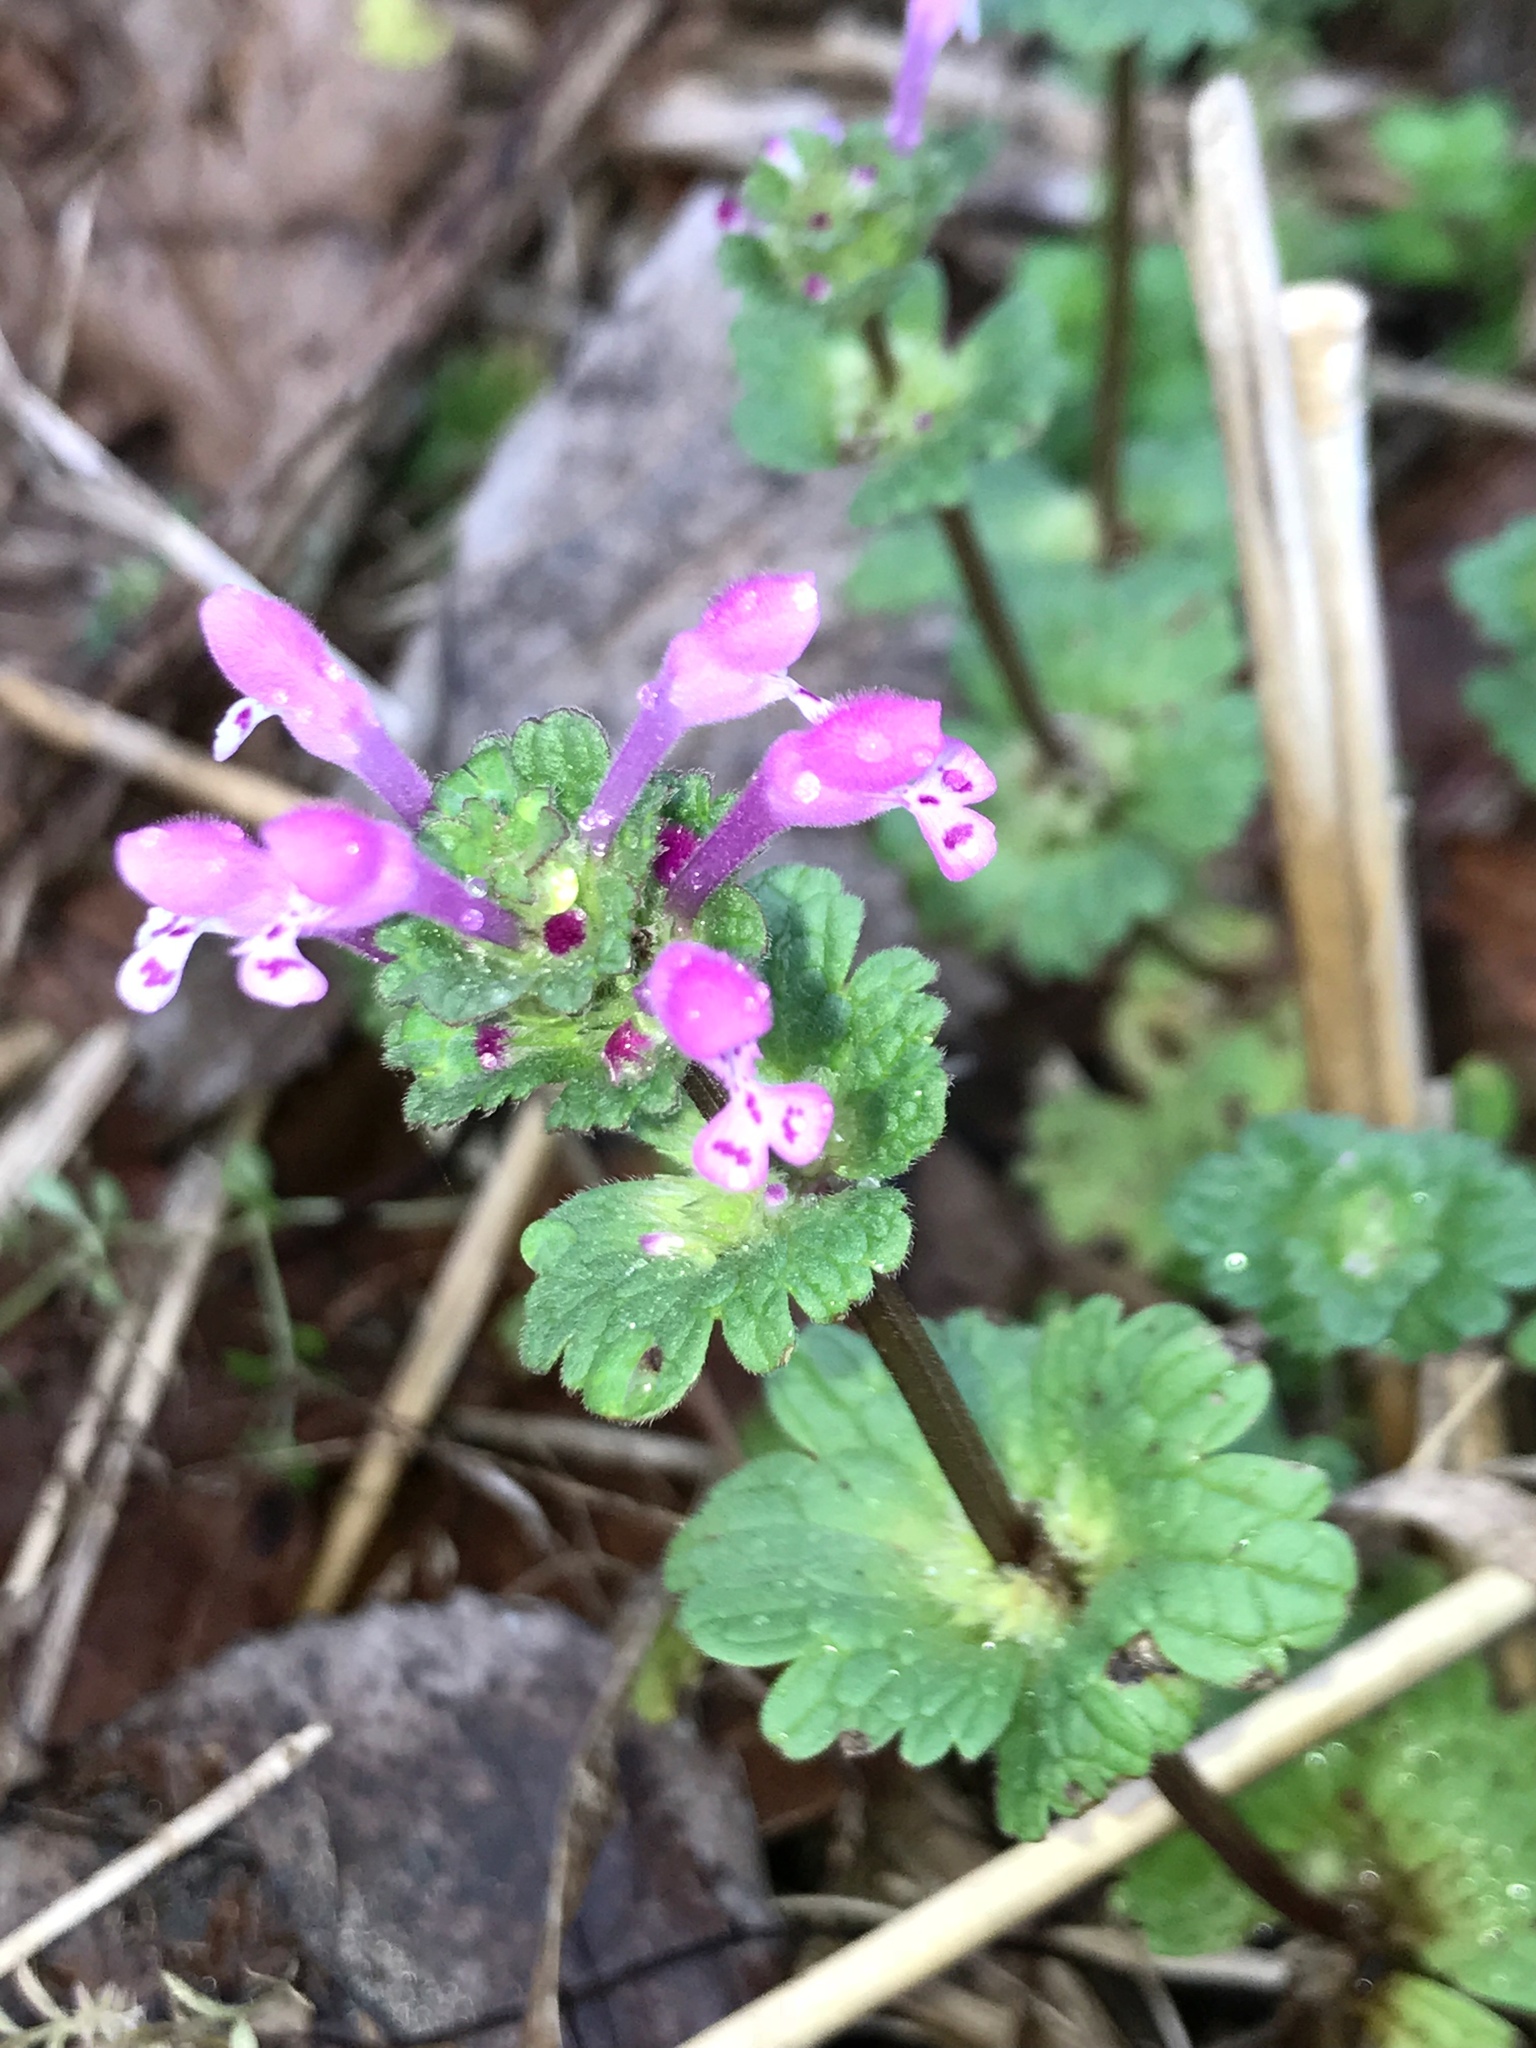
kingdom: Plantae
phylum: Tracheophyta
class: Magnoliopsida
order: Lamiales
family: Lamiaceae
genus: Lamium
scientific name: Lamium amplexicaule
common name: Henbit dead-nettle
